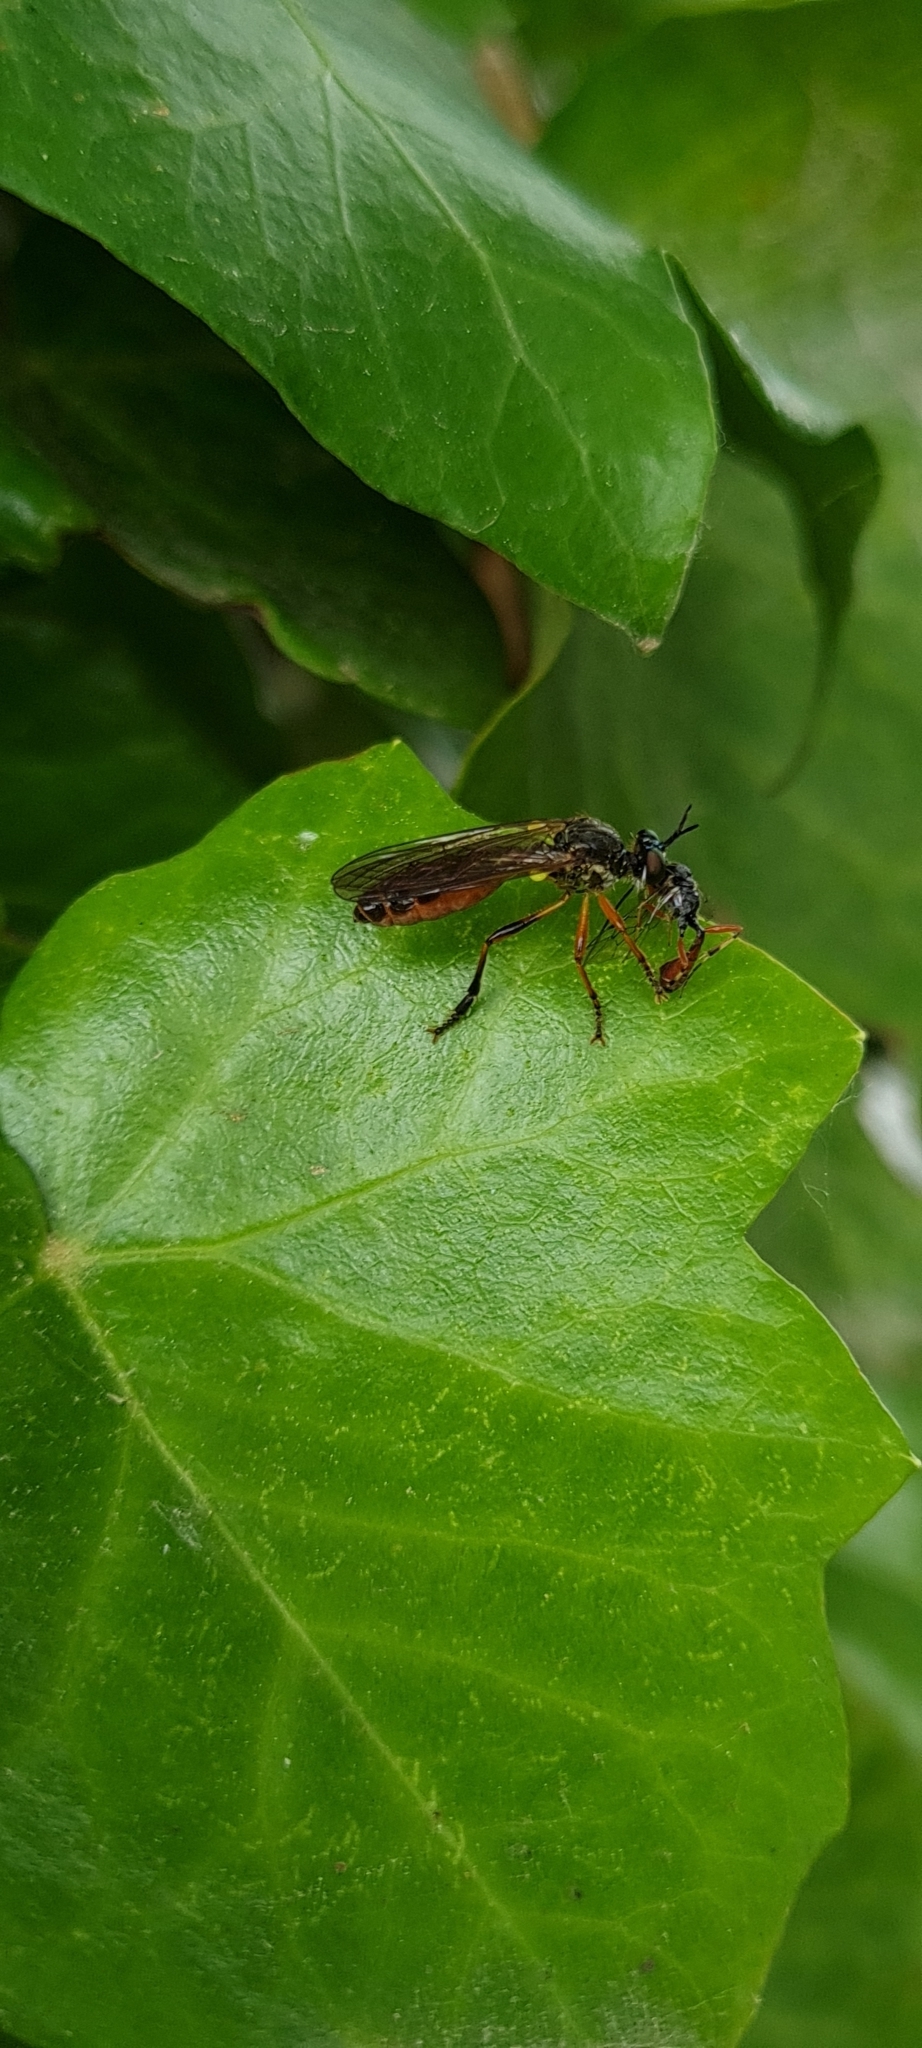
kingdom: Animalia
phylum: Arthropoda
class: Insecta
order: Diptera
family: Asilidae
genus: Dioctria
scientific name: Dioctria hyalipennis
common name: Stripe-legged robberfly
